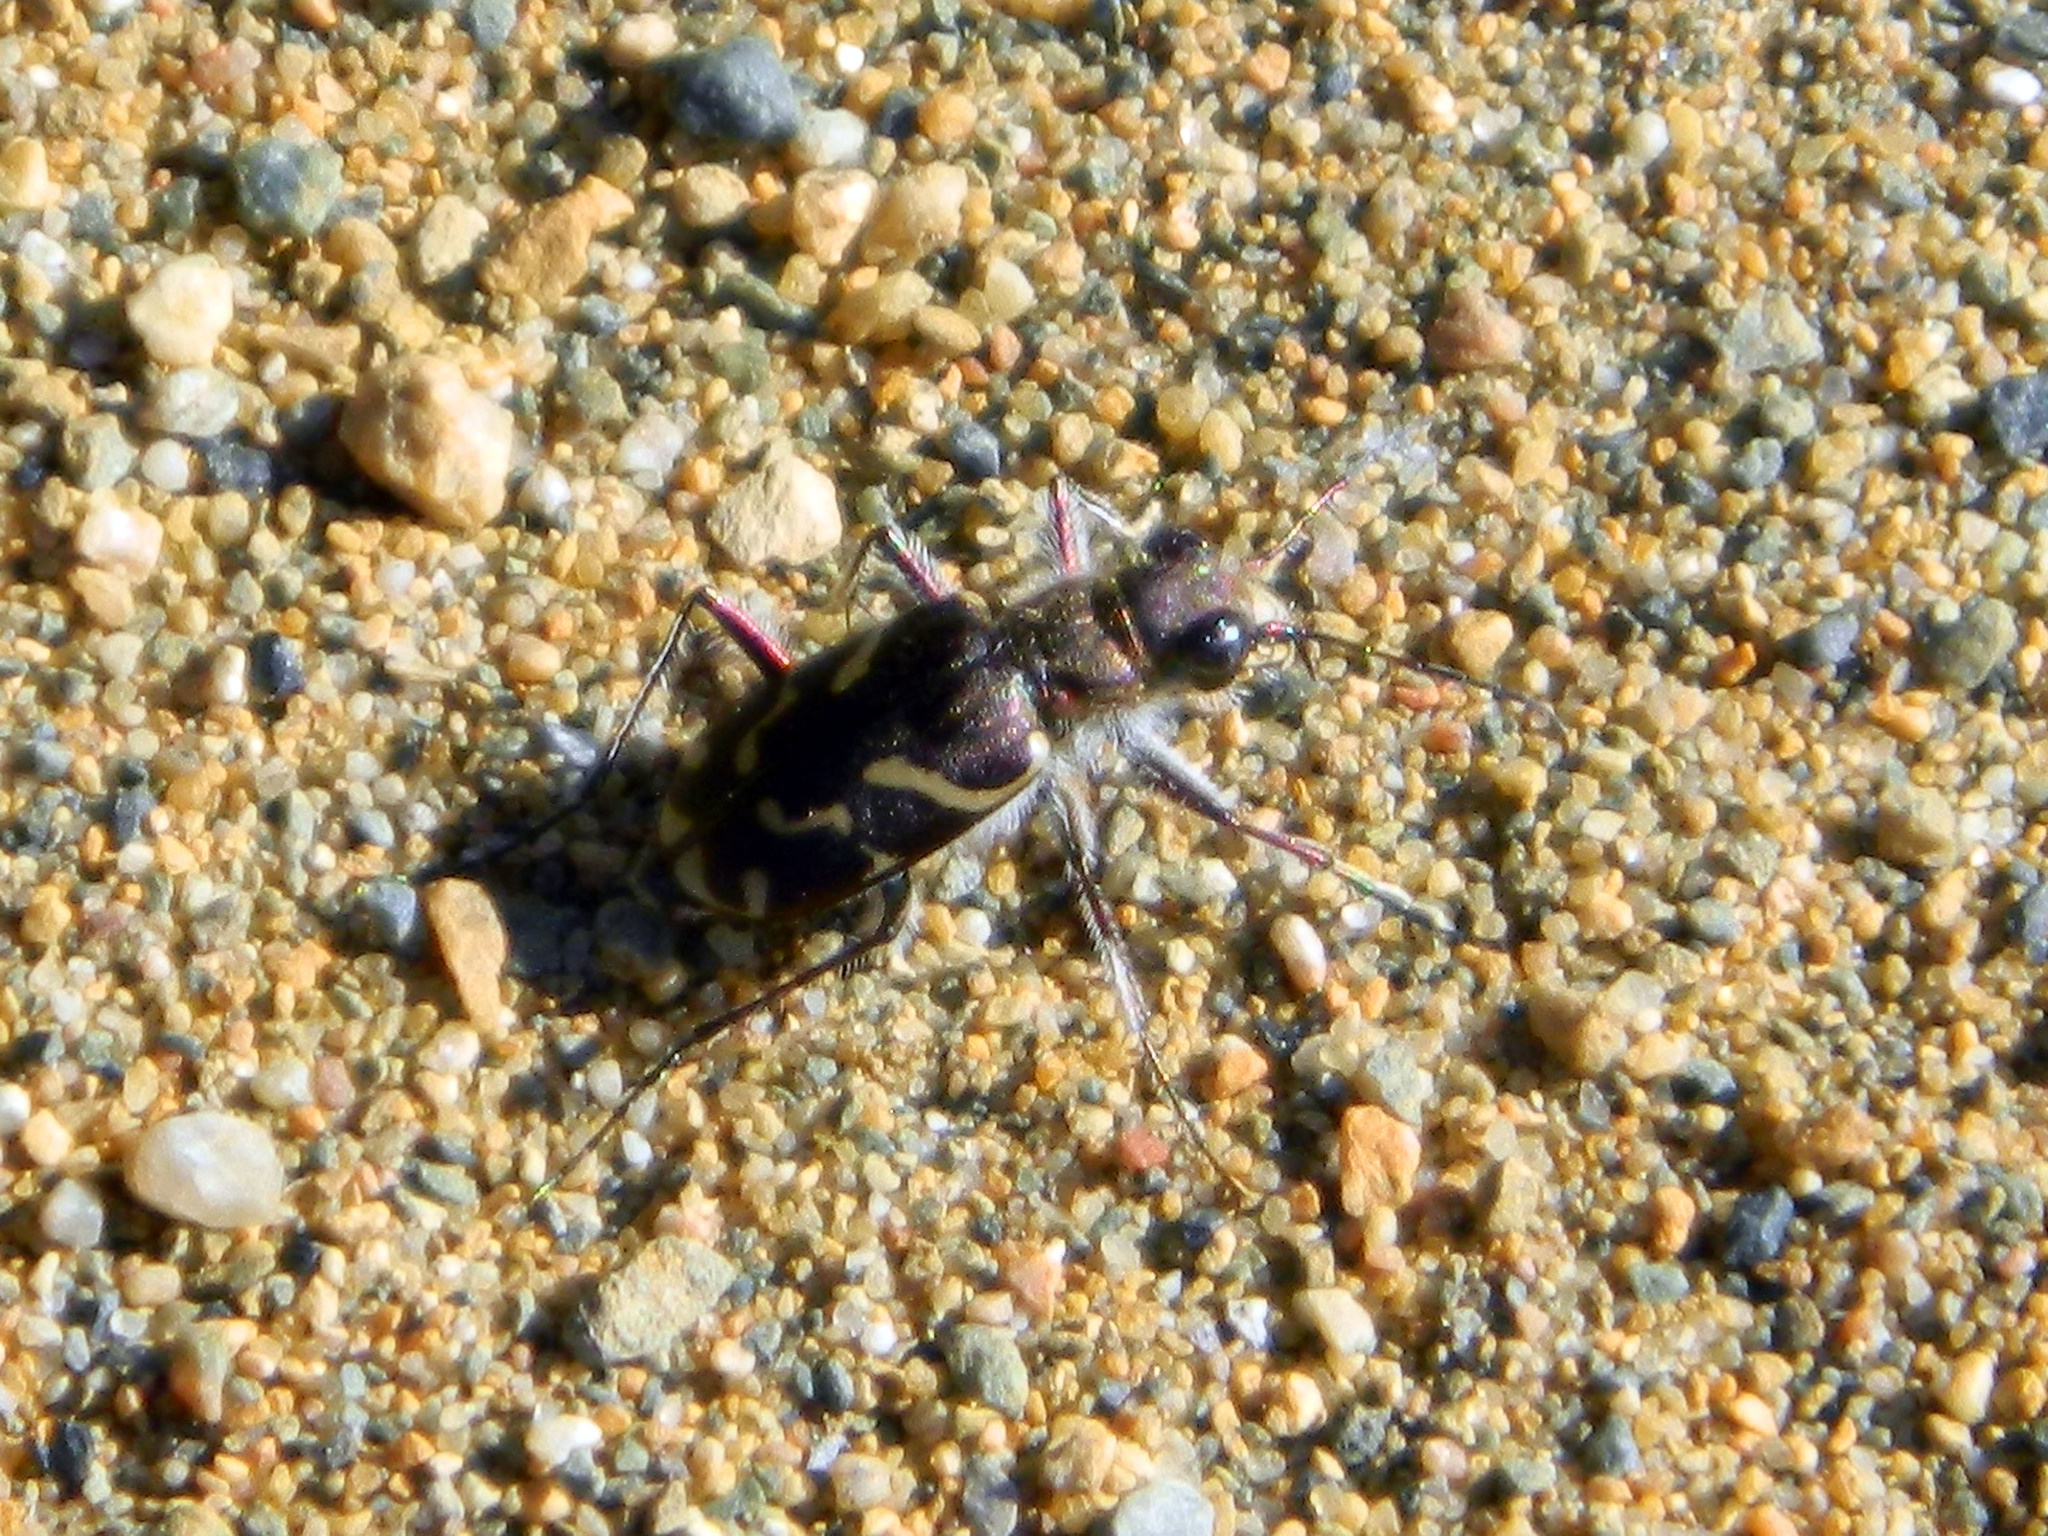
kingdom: Animalia
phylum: Arthropoda
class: Insecta
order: Coleoptera
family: Carabidae
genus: Cicindela
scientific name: Cicindela tranquebarica
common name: Oblique-lined tiger beetle
